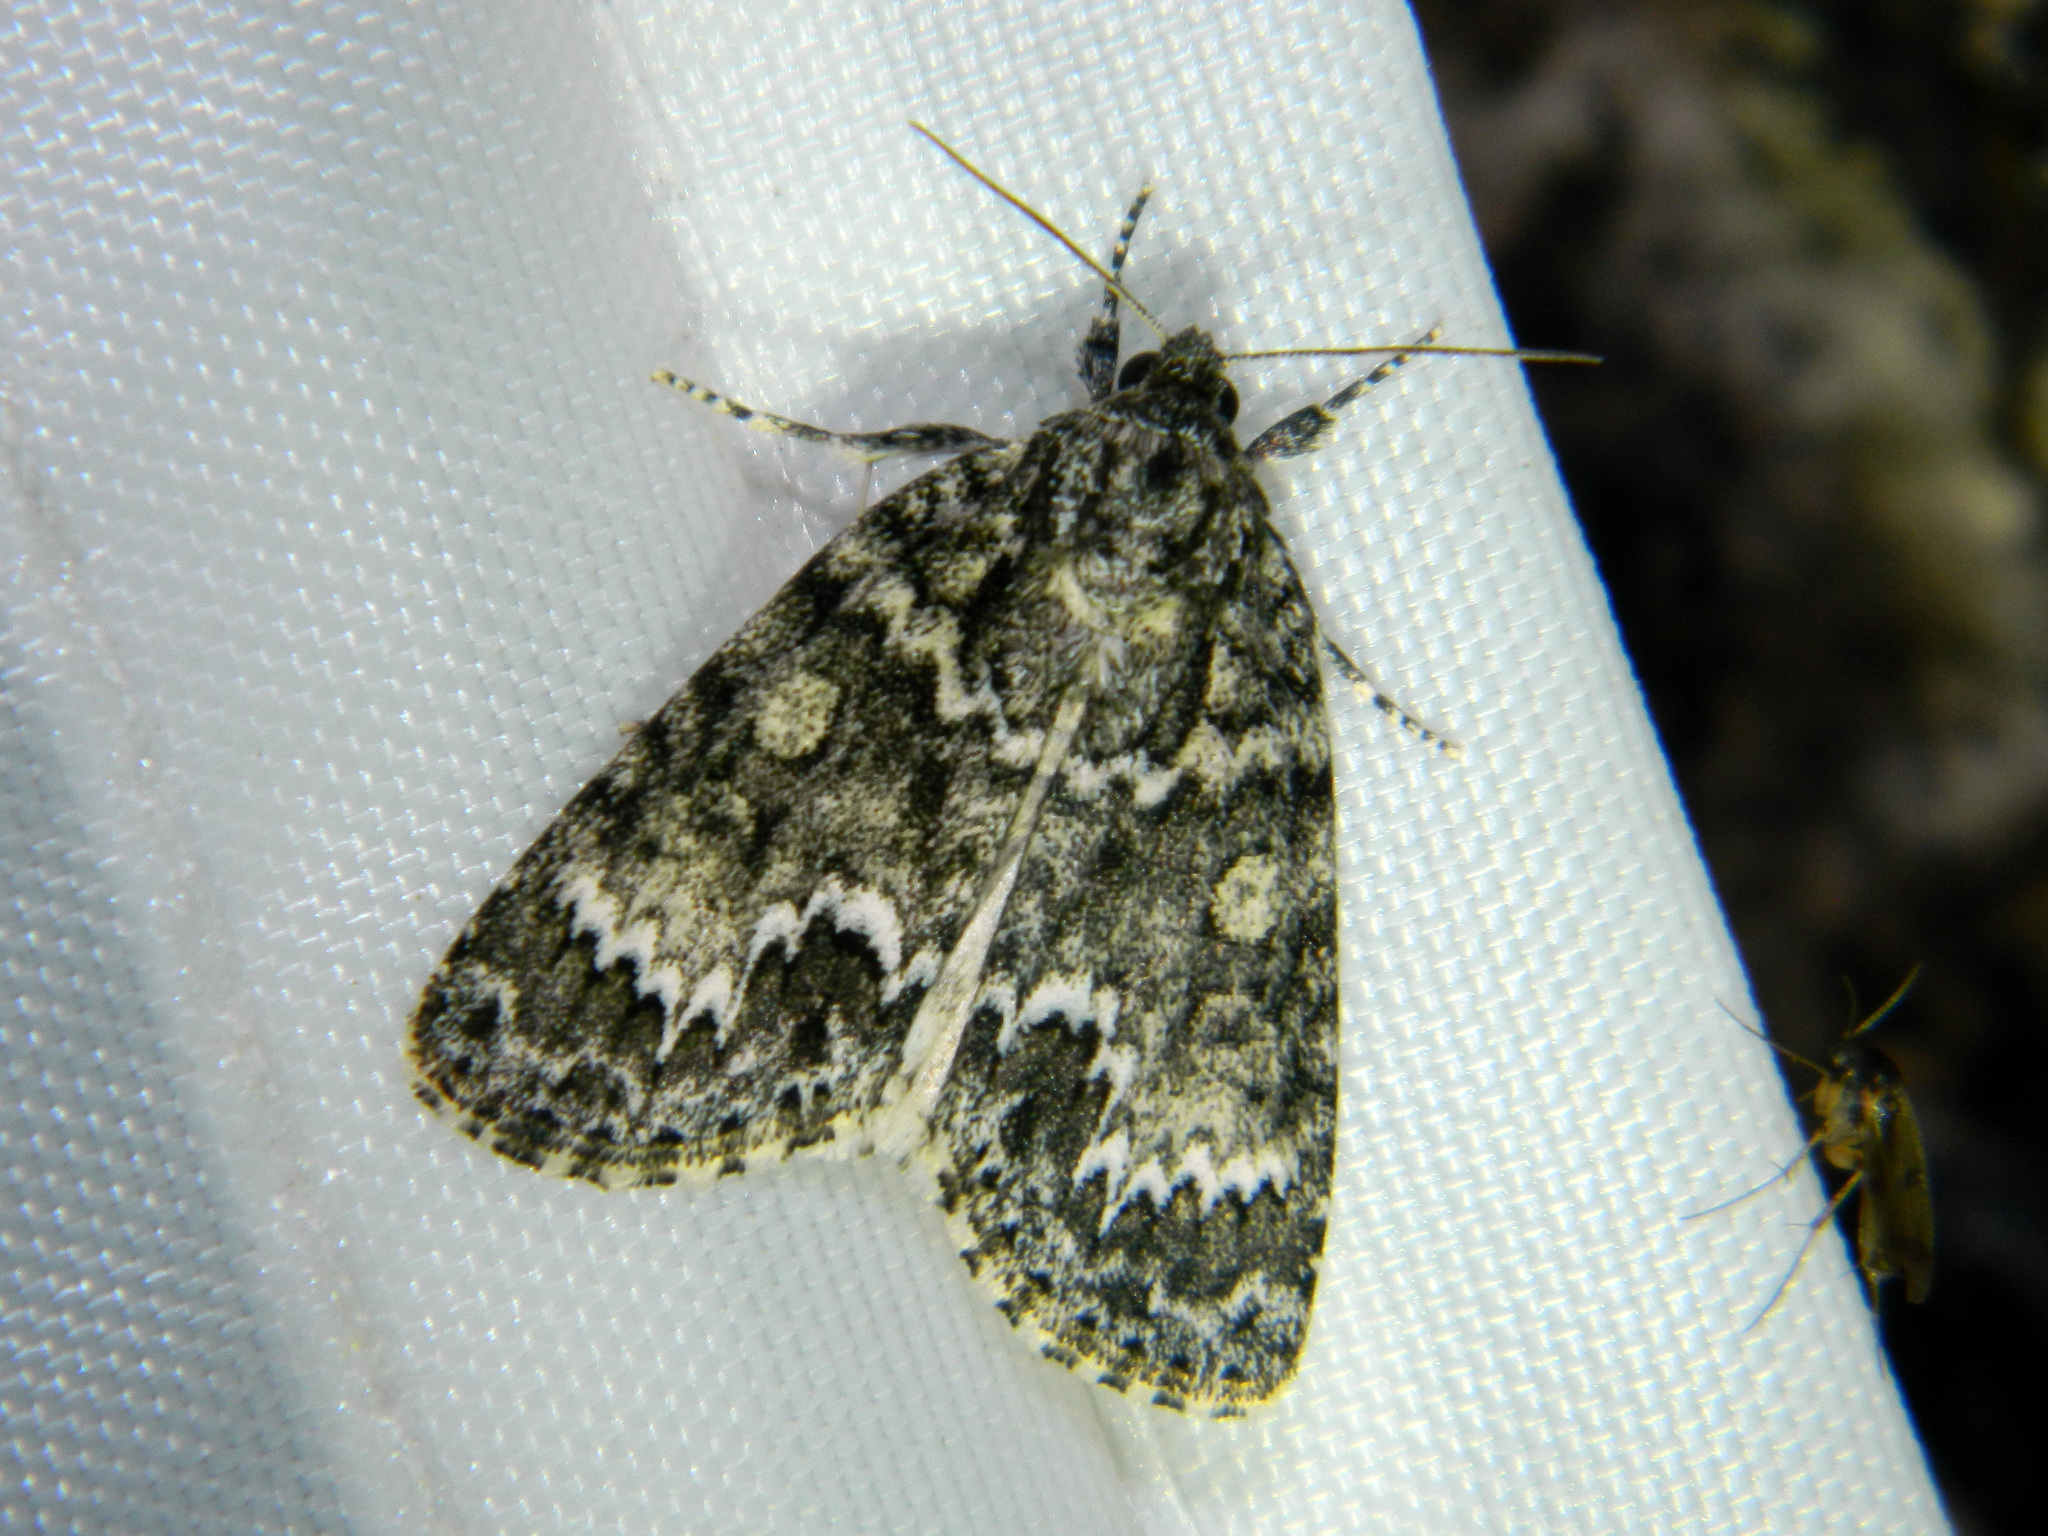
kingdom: Animalia
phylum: Arthropoda
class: Insecta
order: Lepidoptera
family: Noctuidae
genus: Acronicta
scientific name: Acronicta fragilis
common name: Fragile dagger
